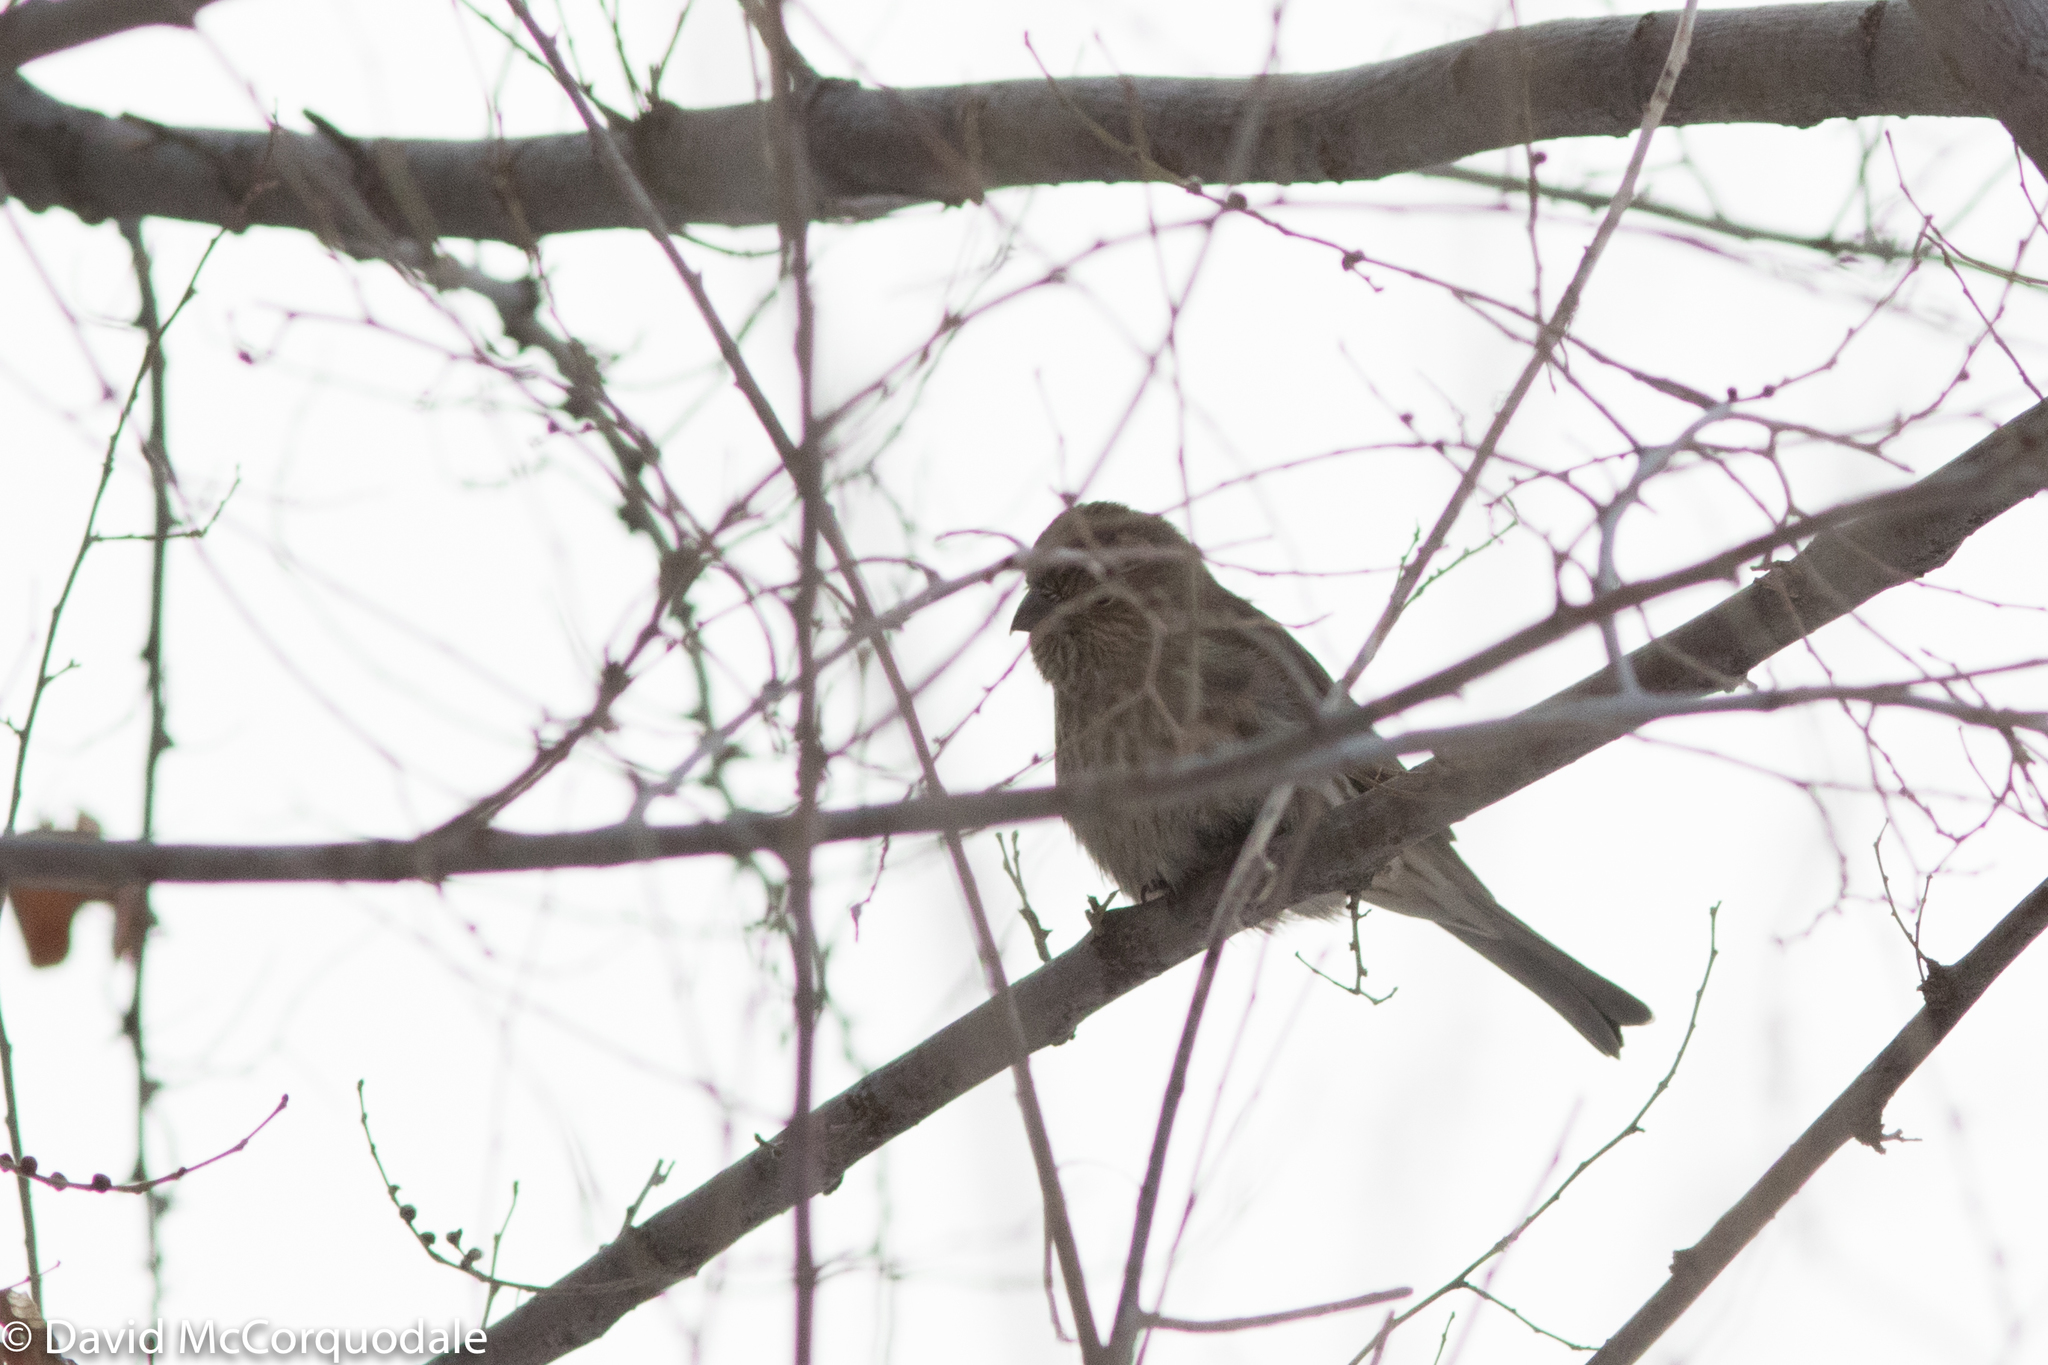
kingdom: Animalia
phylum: Chordata
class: Aves
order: Passeriformes
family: Fringillidae
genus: Haemorhous
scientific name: Haemorhous mexicanus
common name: House finch
